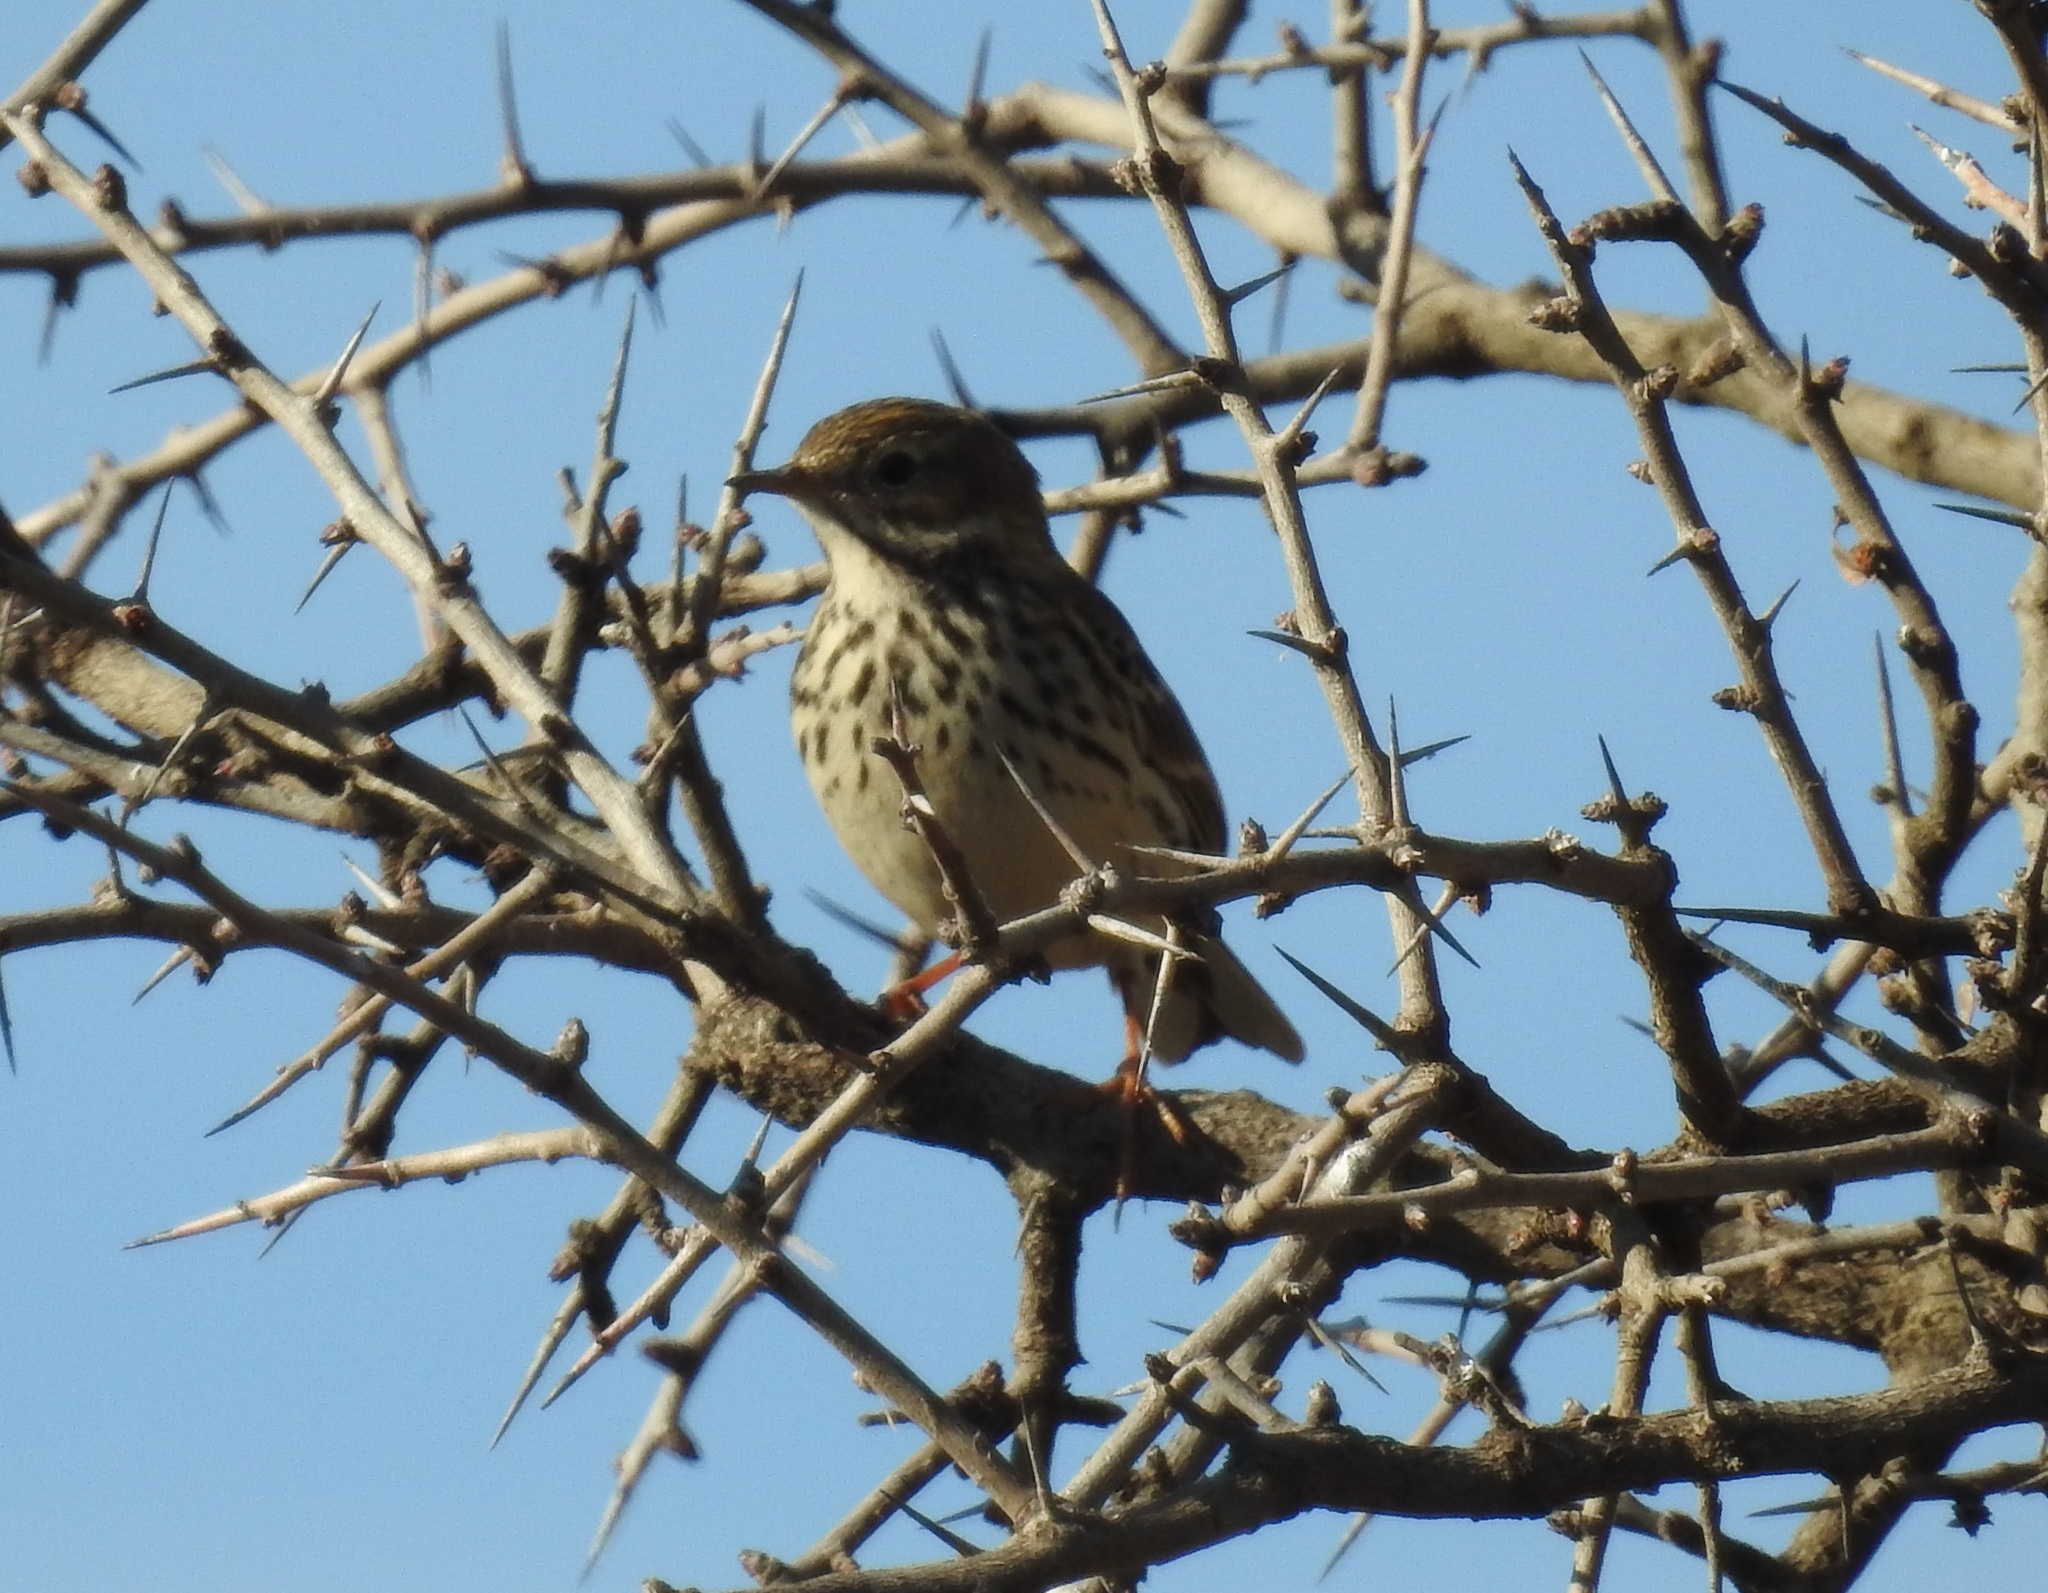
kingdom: Animalia
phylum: Chordata
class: Aves
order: Passeriformes
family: Motacillidae
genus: Anthus
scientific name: Anthus pratensis
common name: Meadow pipit
